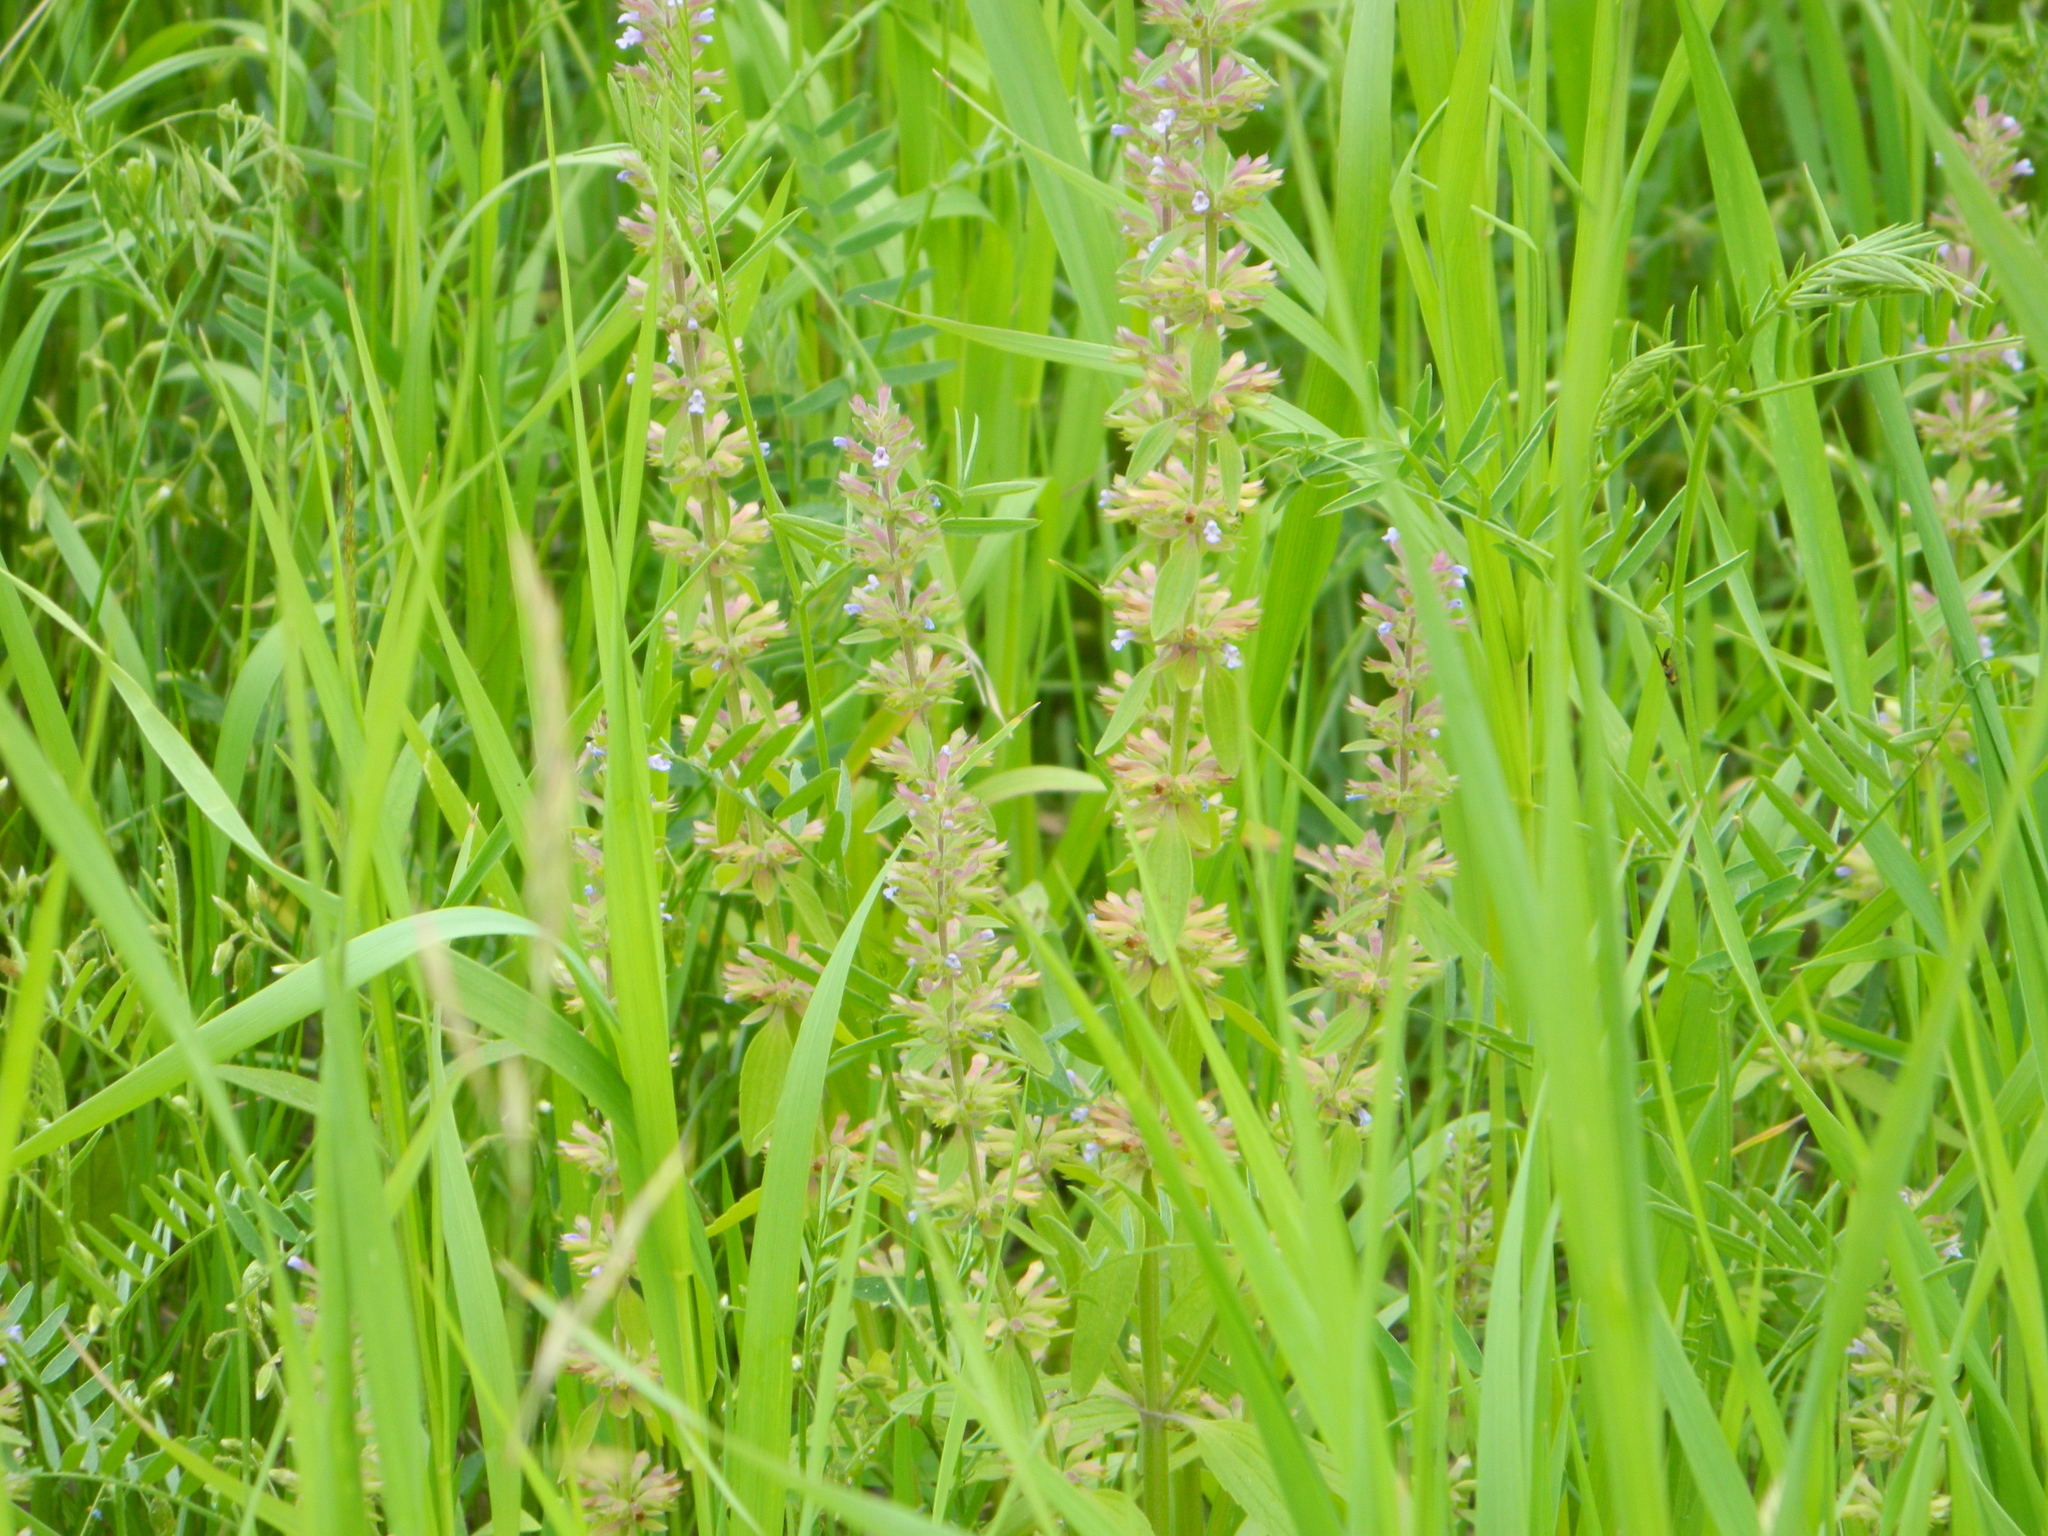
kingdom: Plantae
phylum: Tracheophyta
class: Magnoliopsida
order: Lamiales
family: Lamiaceae
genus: Dracocephalum
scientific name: Dracocephalum thymiflorum
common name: Thymeleaf dragonhead
